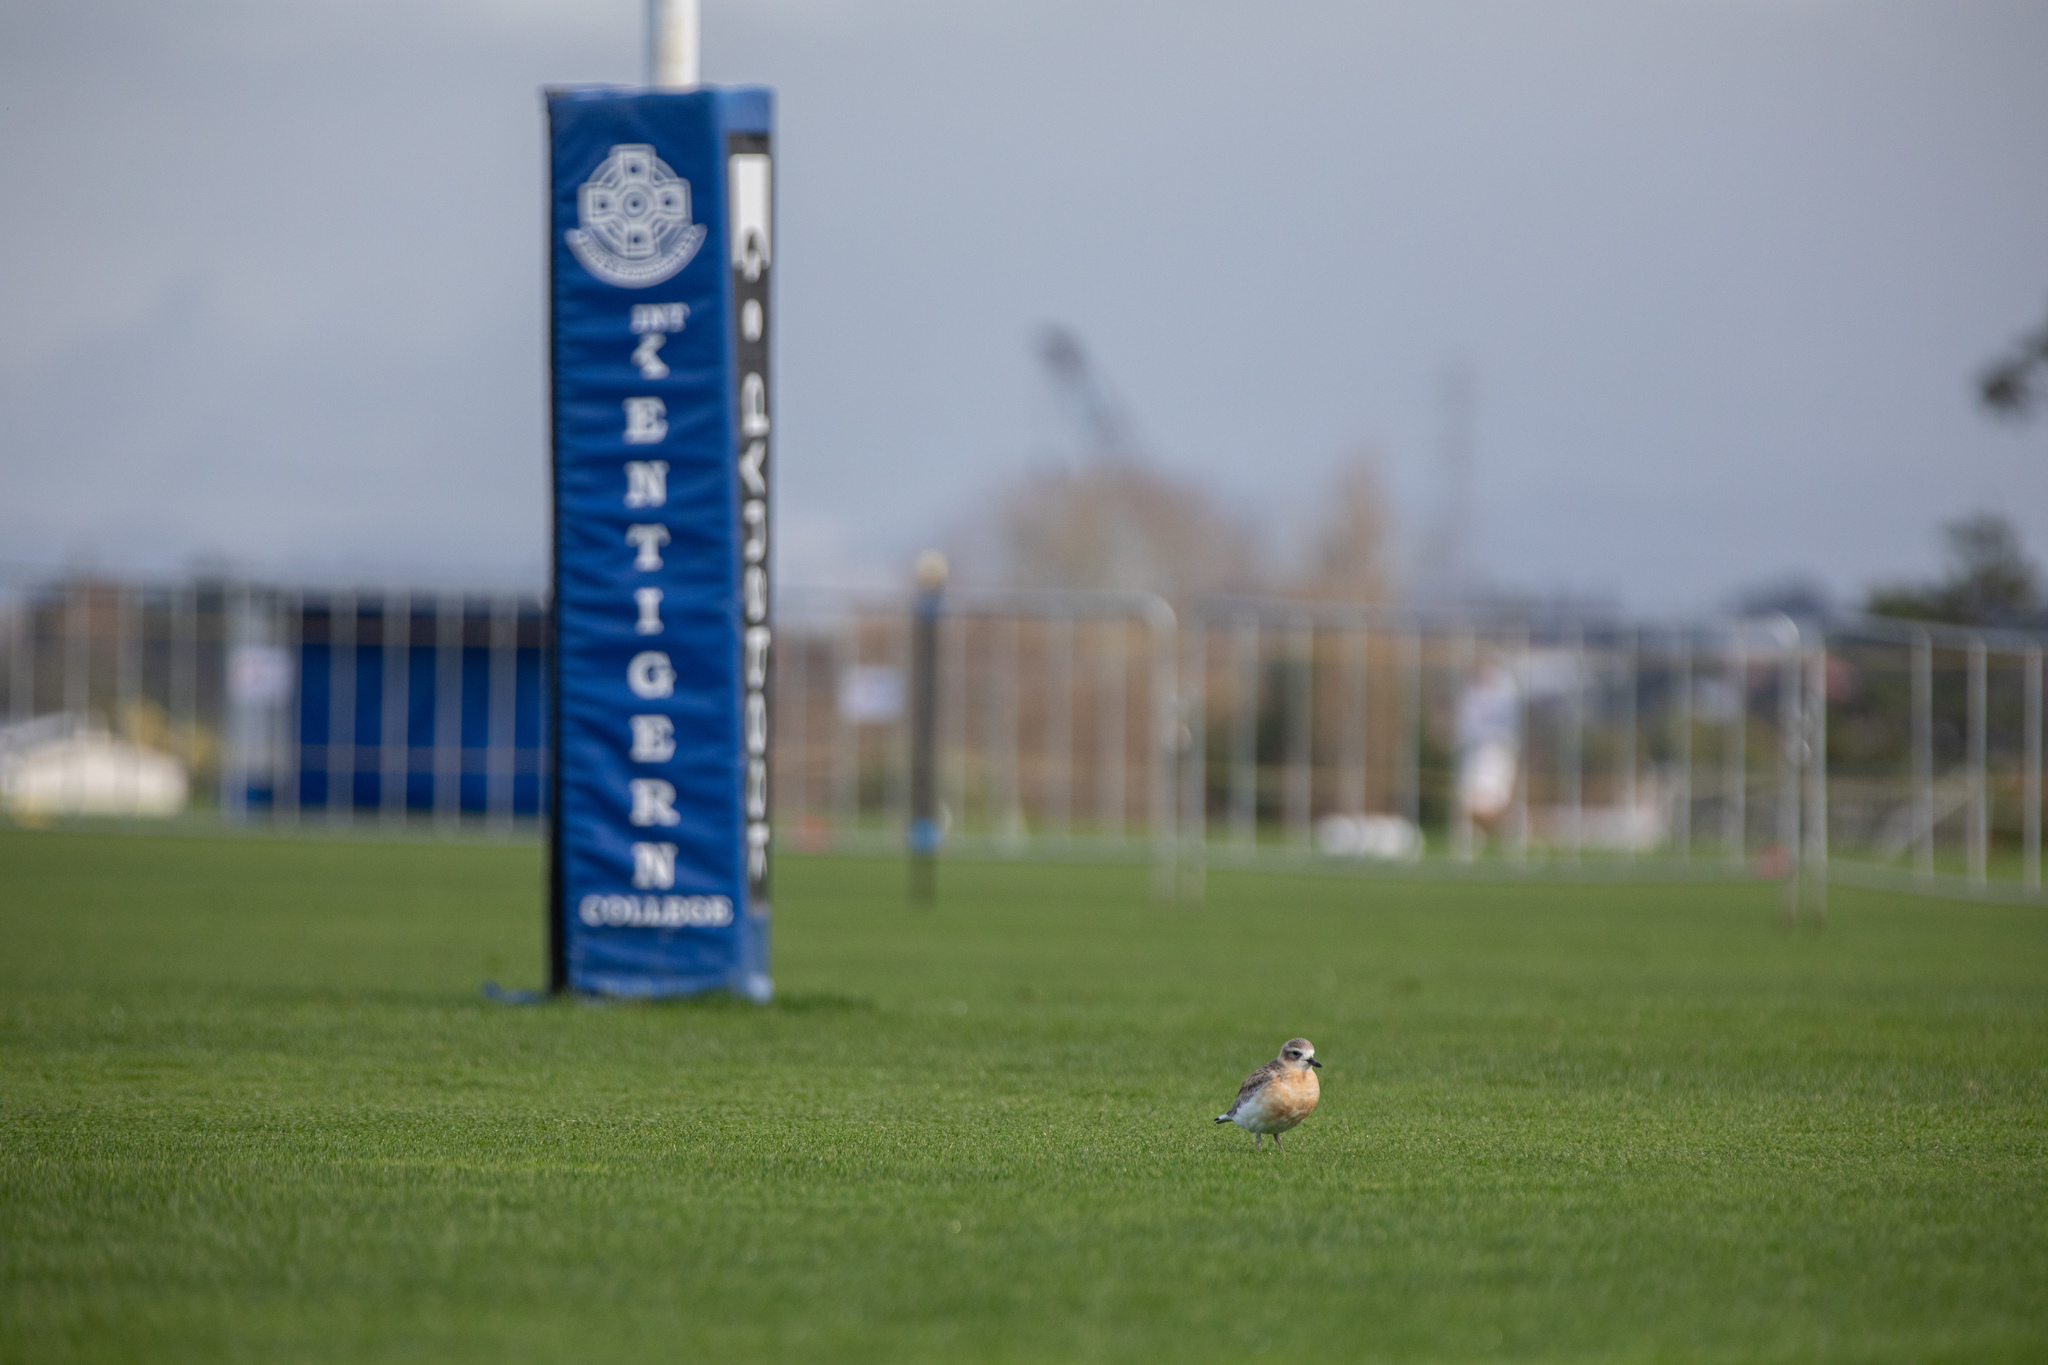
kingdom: Animalia
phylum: Chordata
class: Aves
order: Charadriiformes
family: Charadriidae
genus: Anarhynchus
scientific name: Anarhynchus
